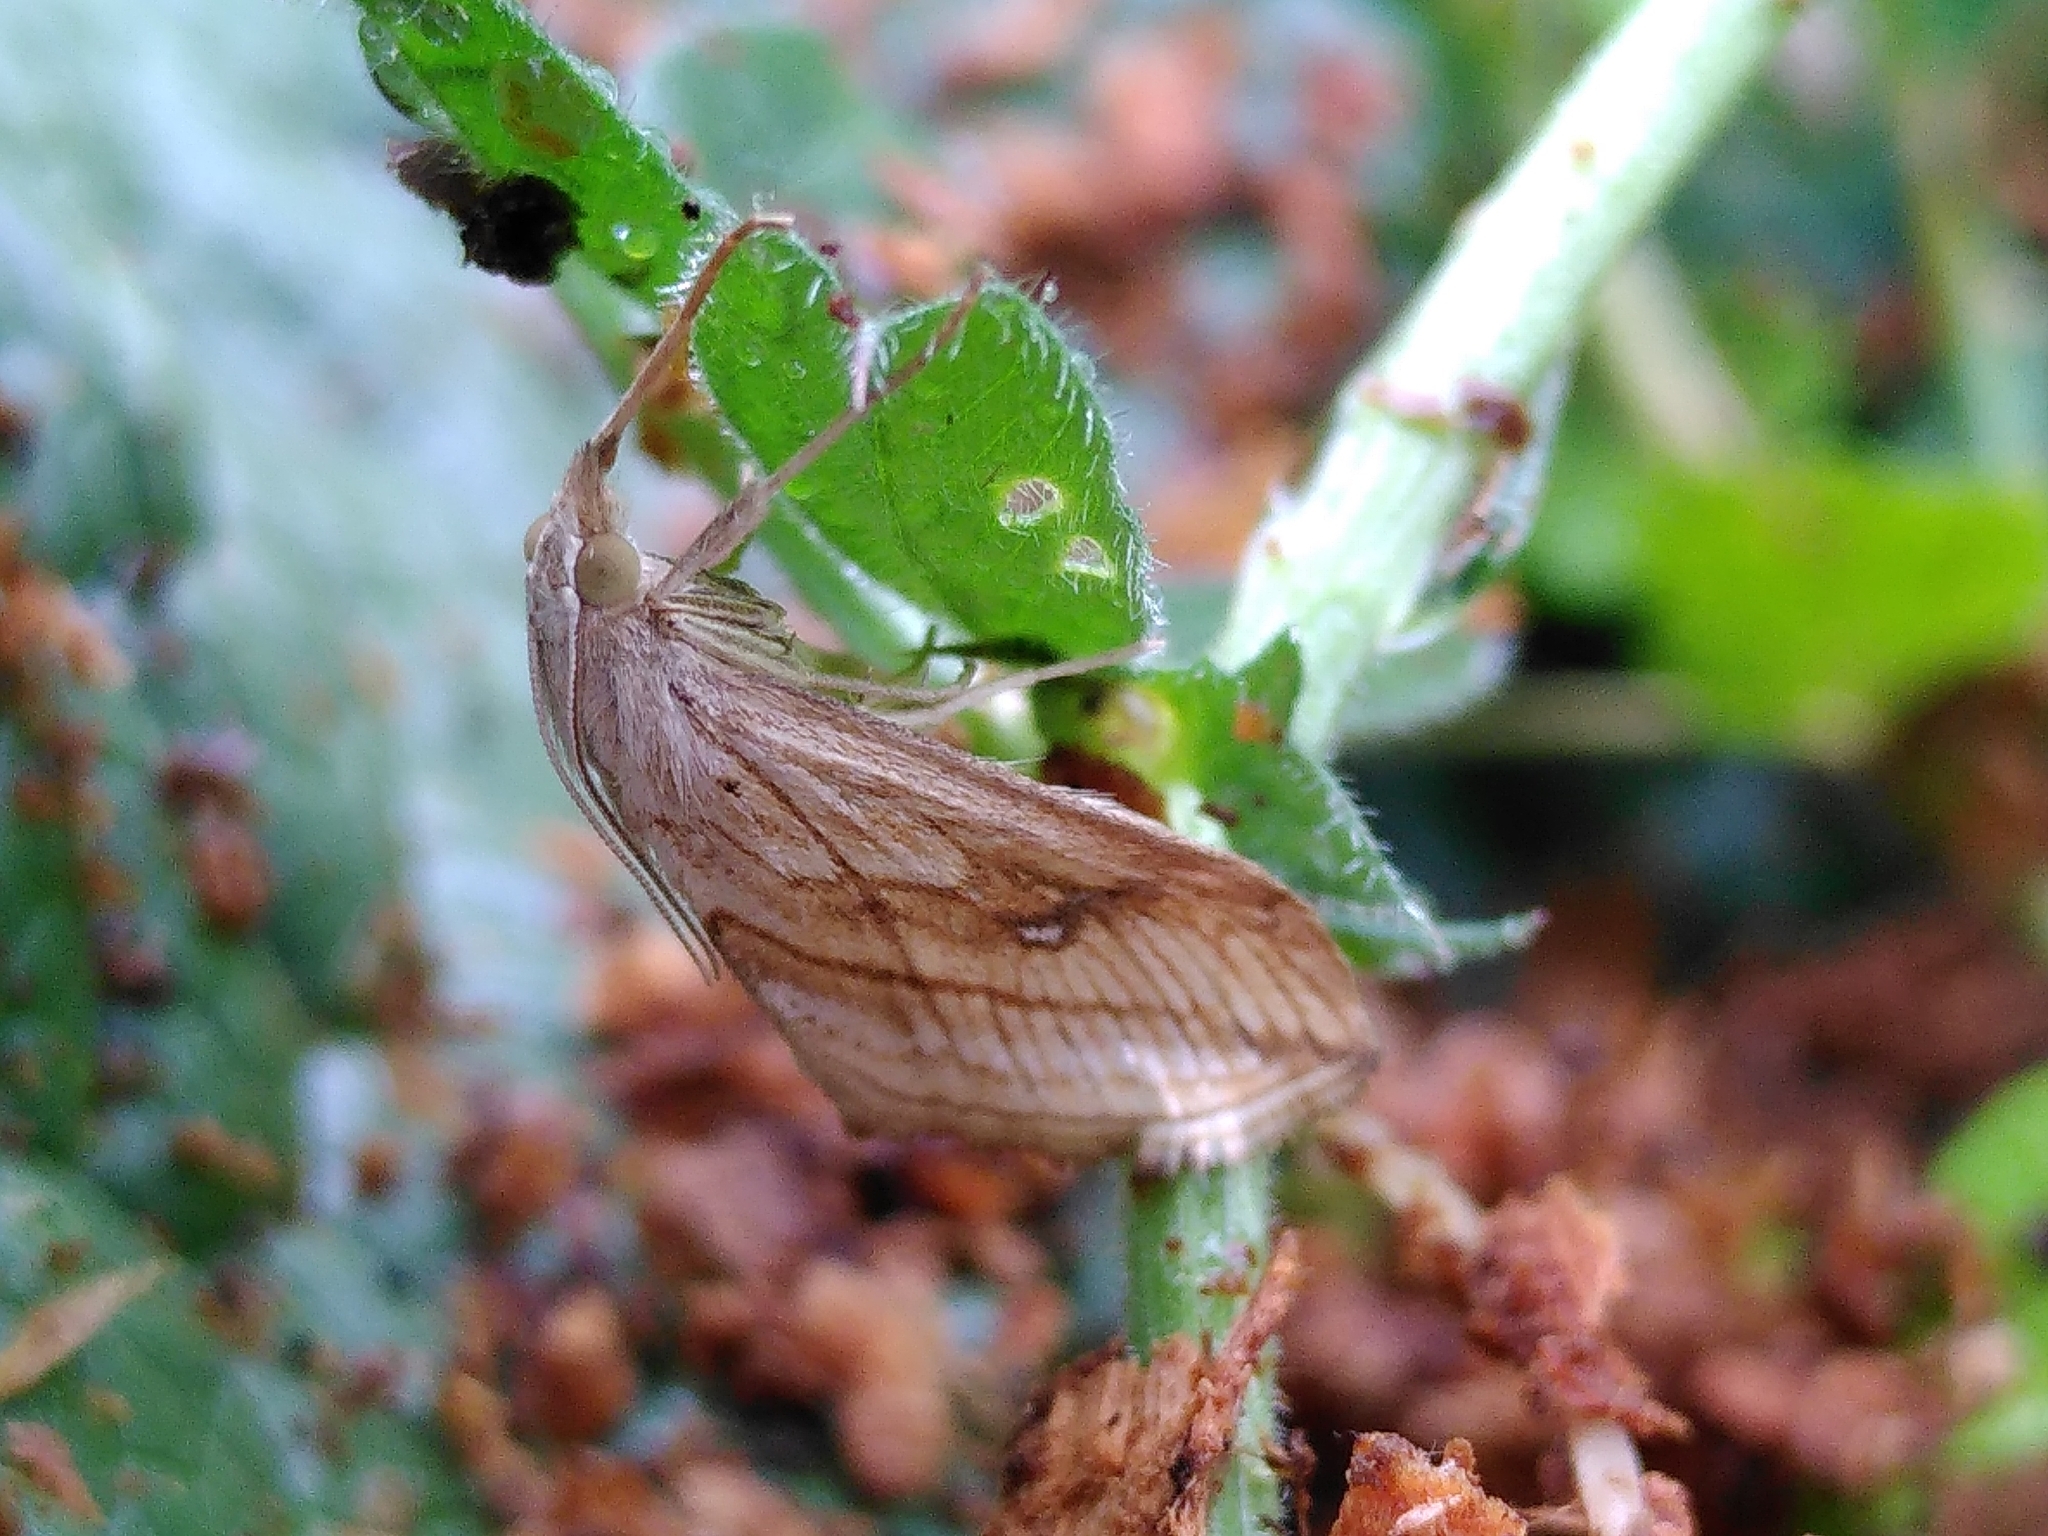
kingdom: Animalia
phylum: Arthropoda
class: Insecta
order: Lepidoptera
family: Crambidae
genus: Evergestis
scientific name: Evergestis forficalis
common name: Garden pebble
